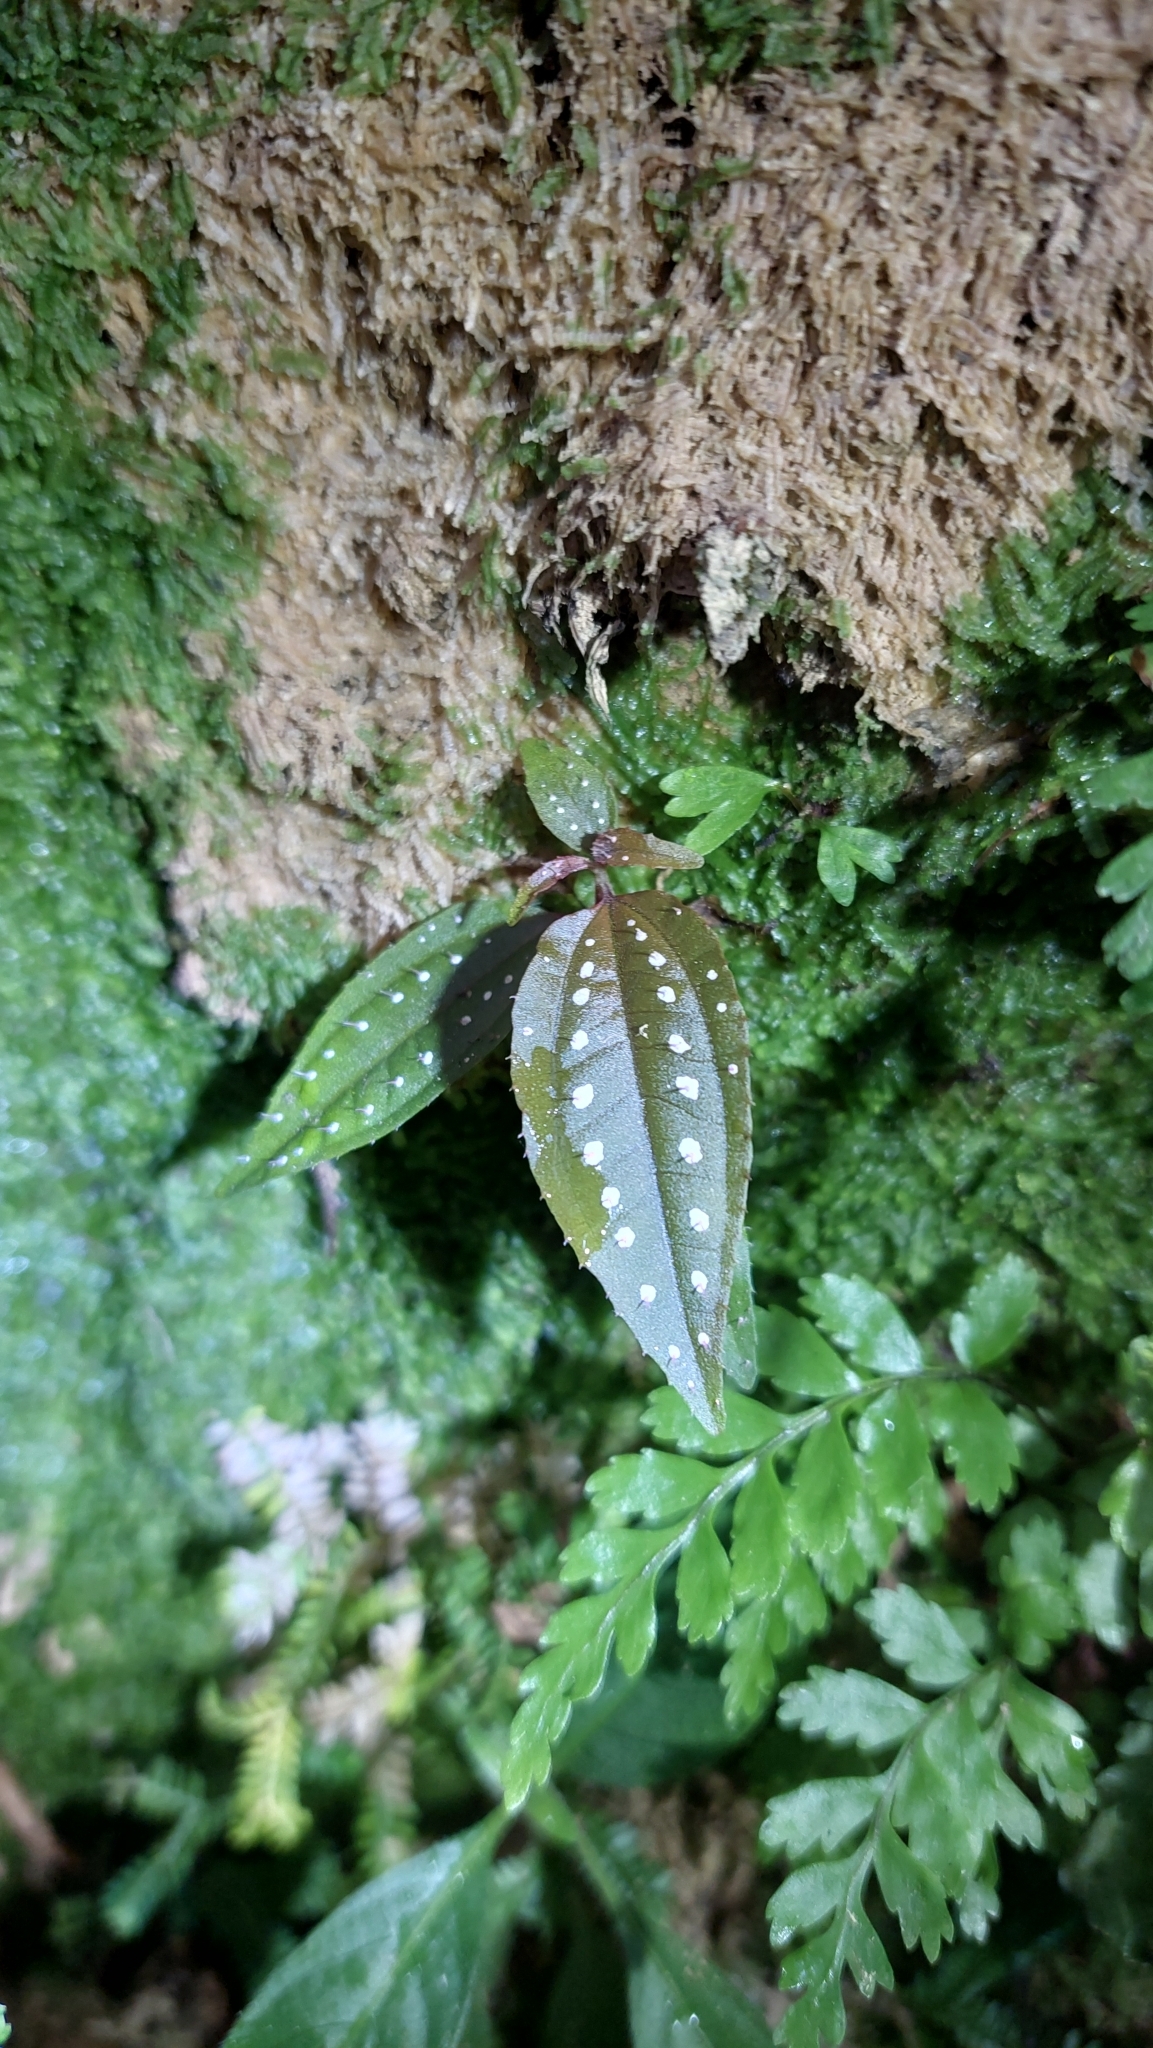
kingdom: Plantae
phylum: Tracheophyta
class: Magnoliopsida
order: Myrtales
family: Melastomataceae
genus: Blastus
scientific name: Blastus cochinchinensis
